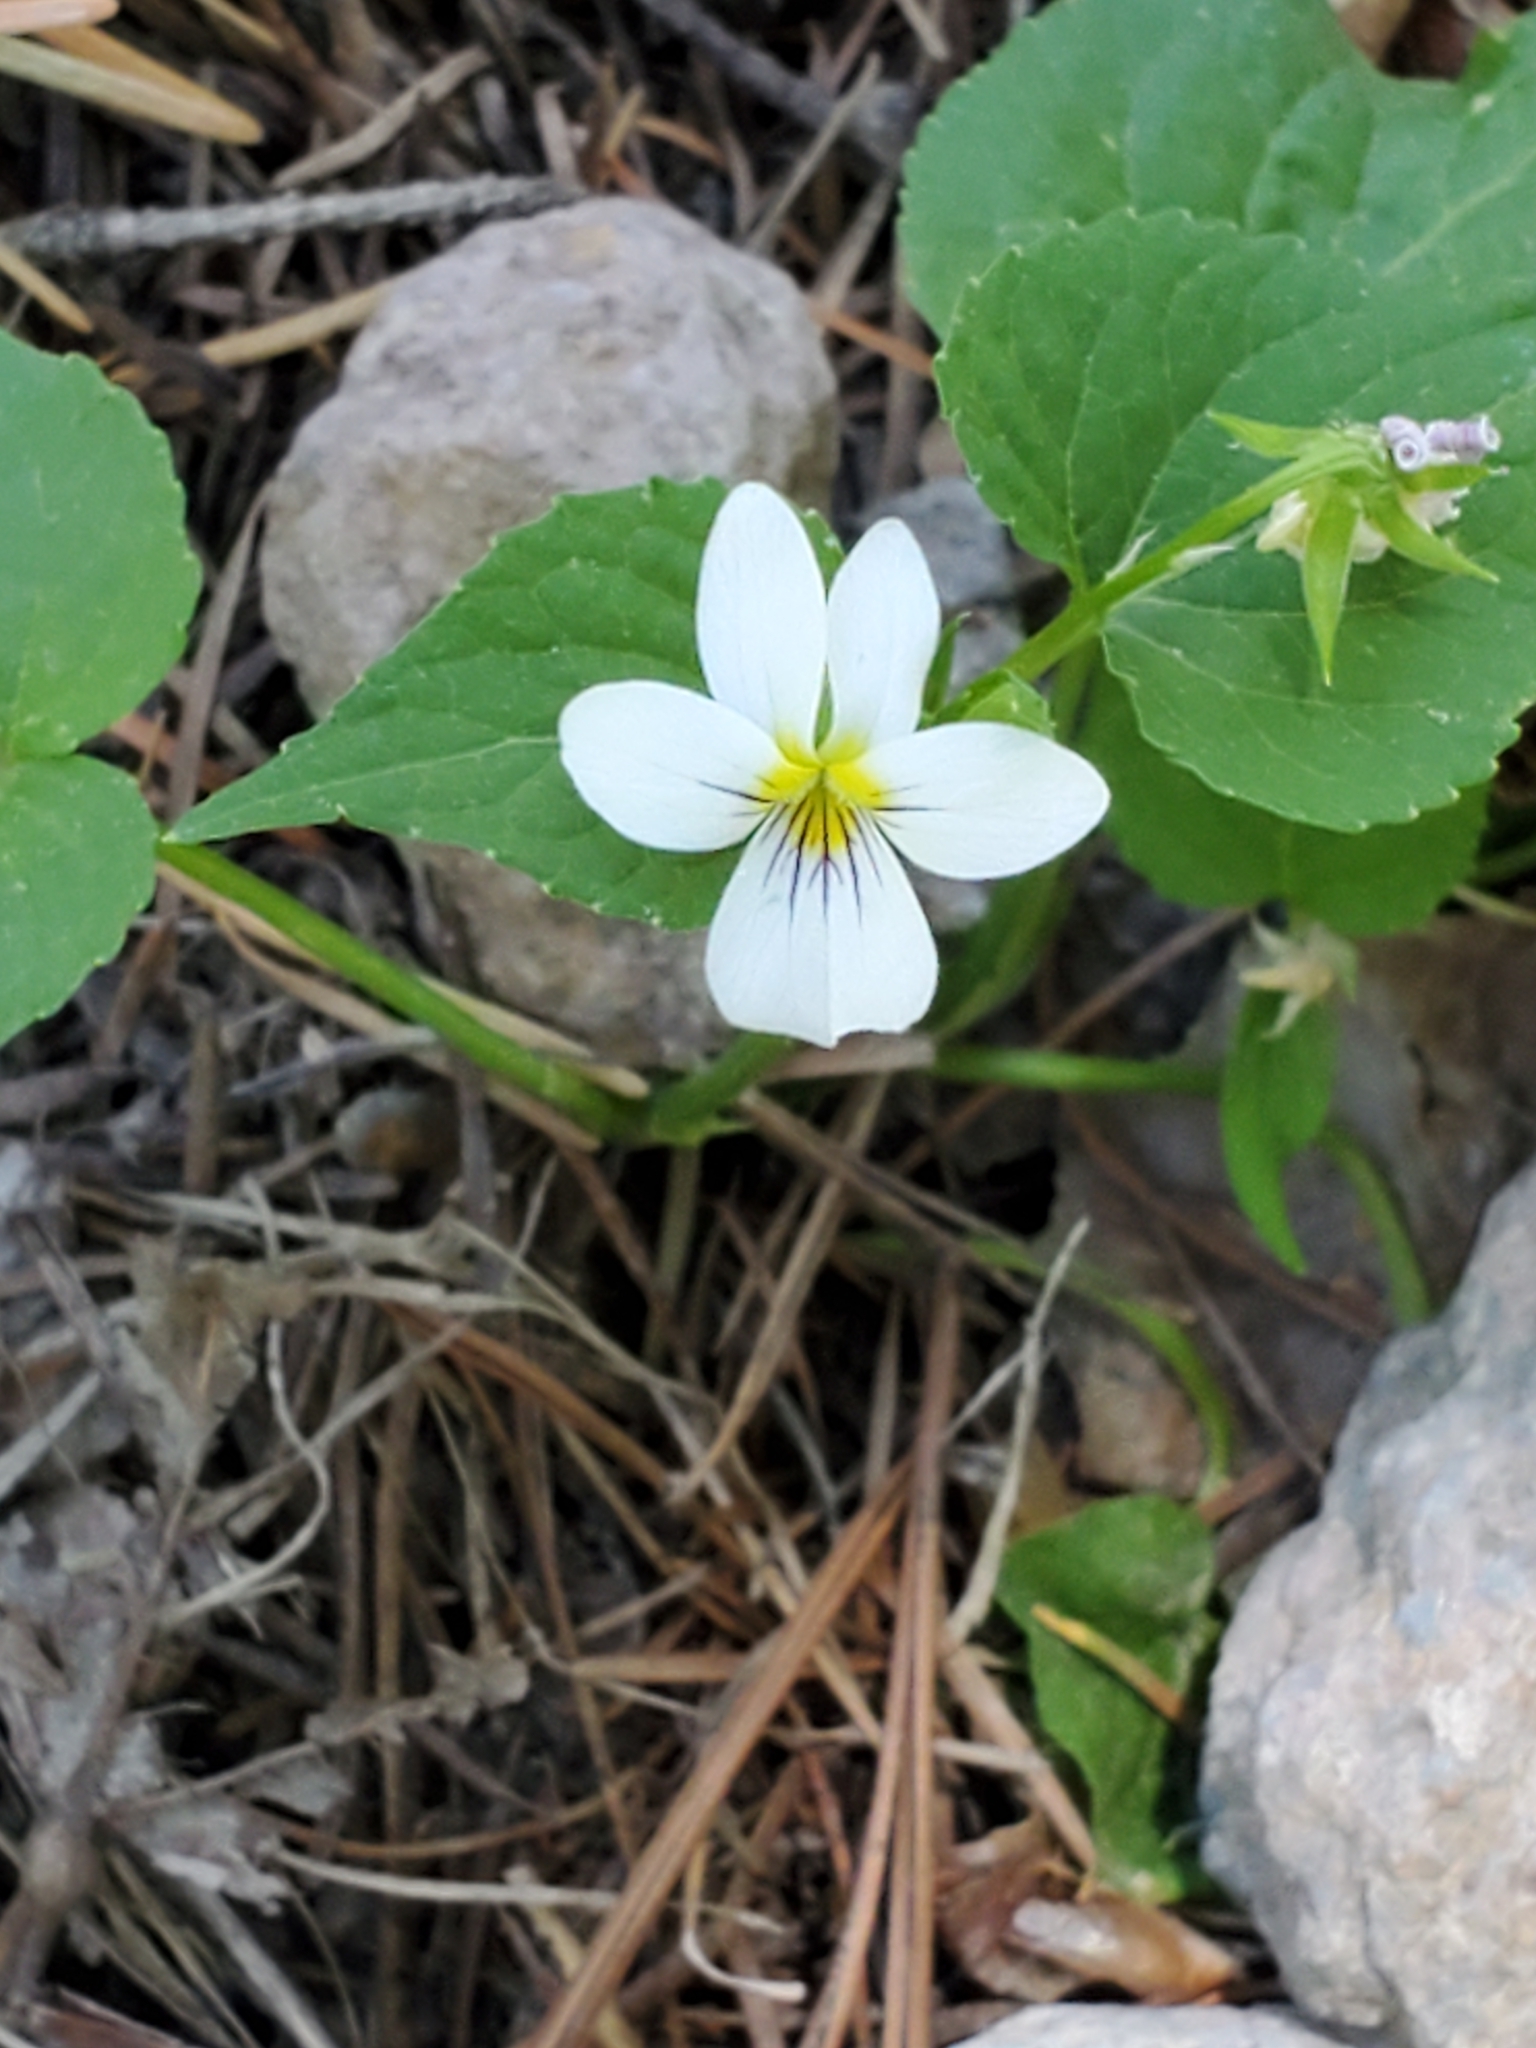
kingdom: Plantae
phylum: Tracheophyta
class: Magnoliopsida
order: Malpighiales
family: Violaceae
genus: Viola
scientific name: Viola canadensis
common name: Canada violet
